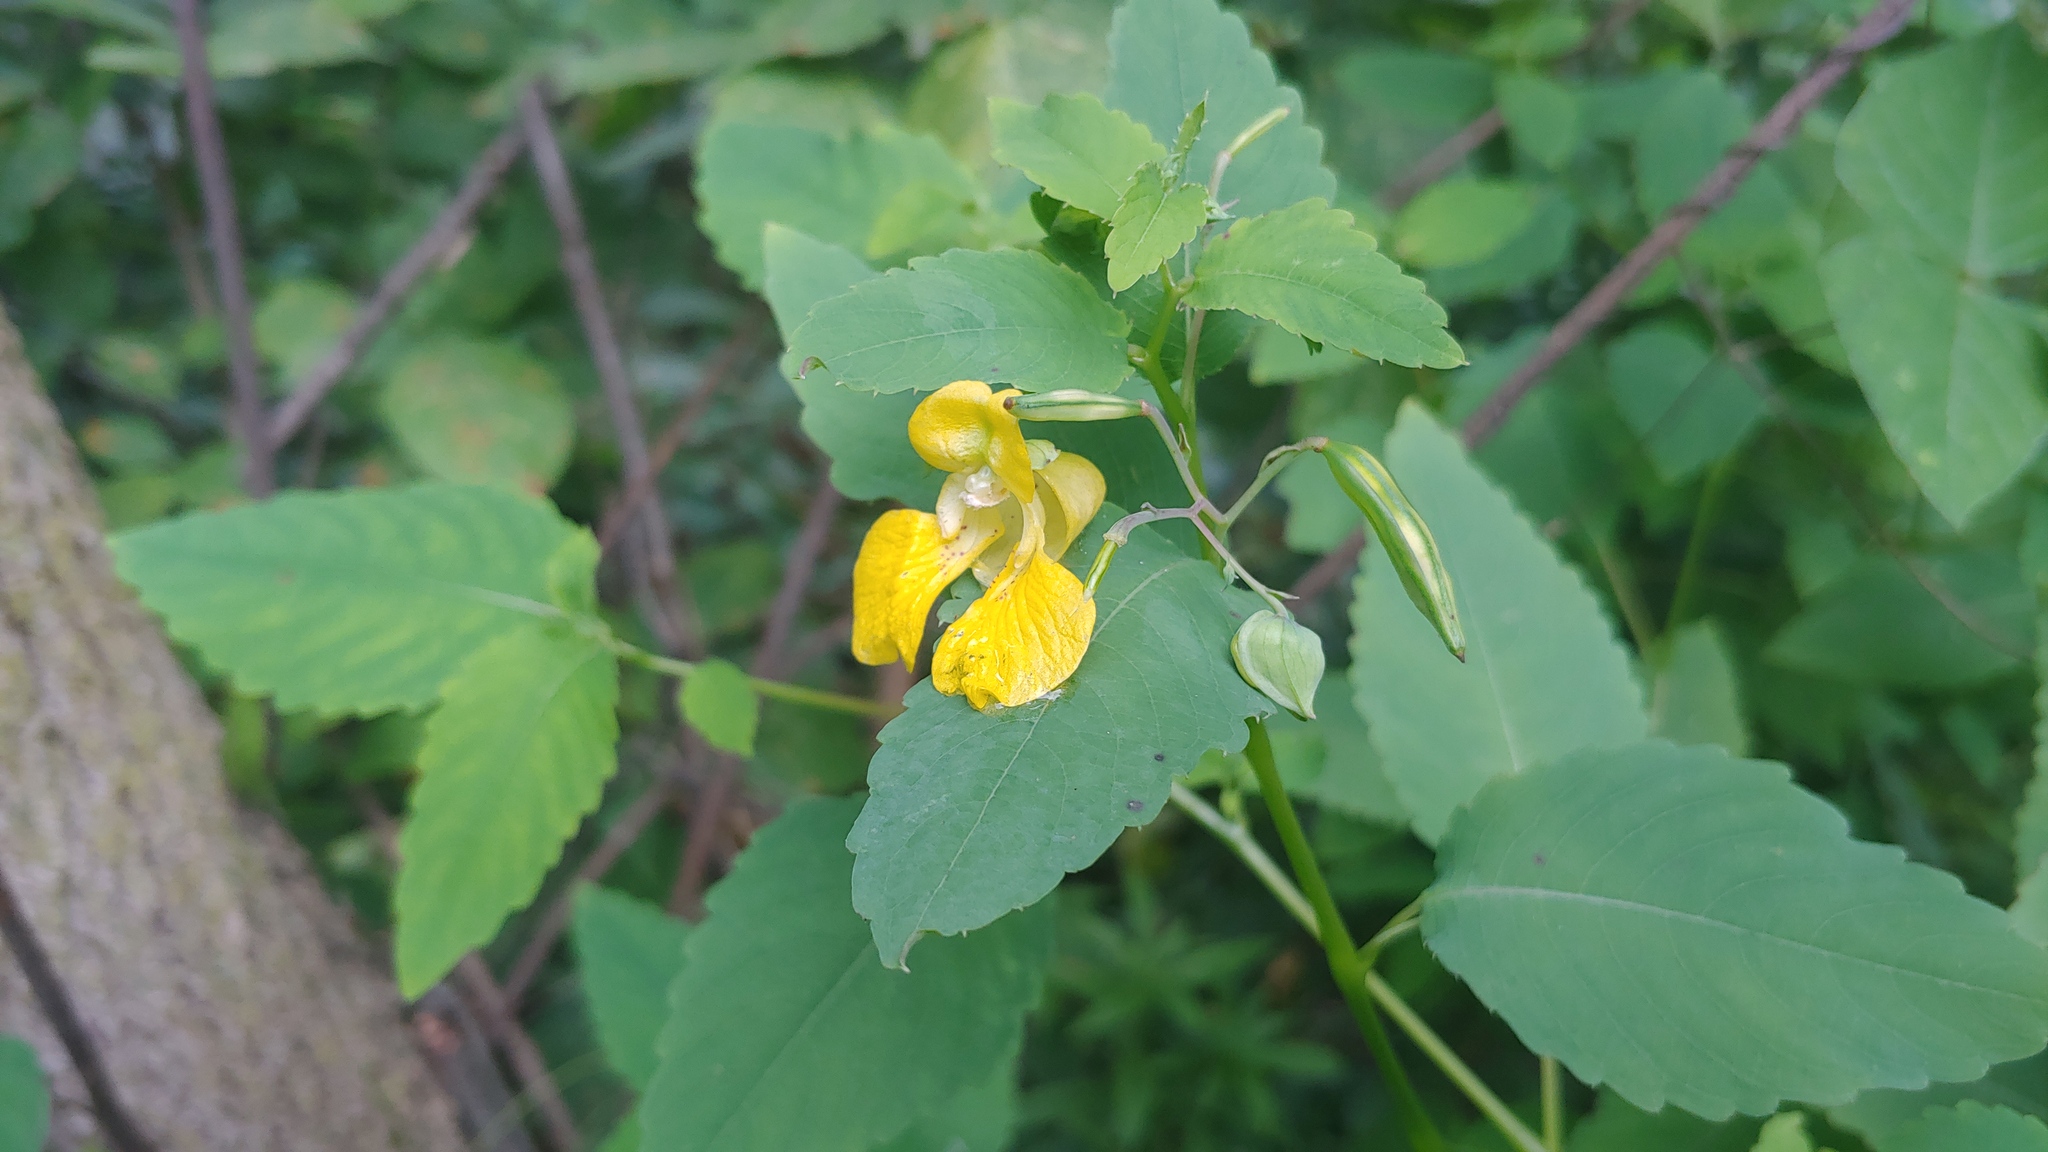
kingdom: Plantae
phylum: Tracheophyta
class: Magnoliopsida
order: Ericales
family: Balsaminaceae
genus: Impatiens
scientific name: Impatiens pallida
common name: Pale snapweed
